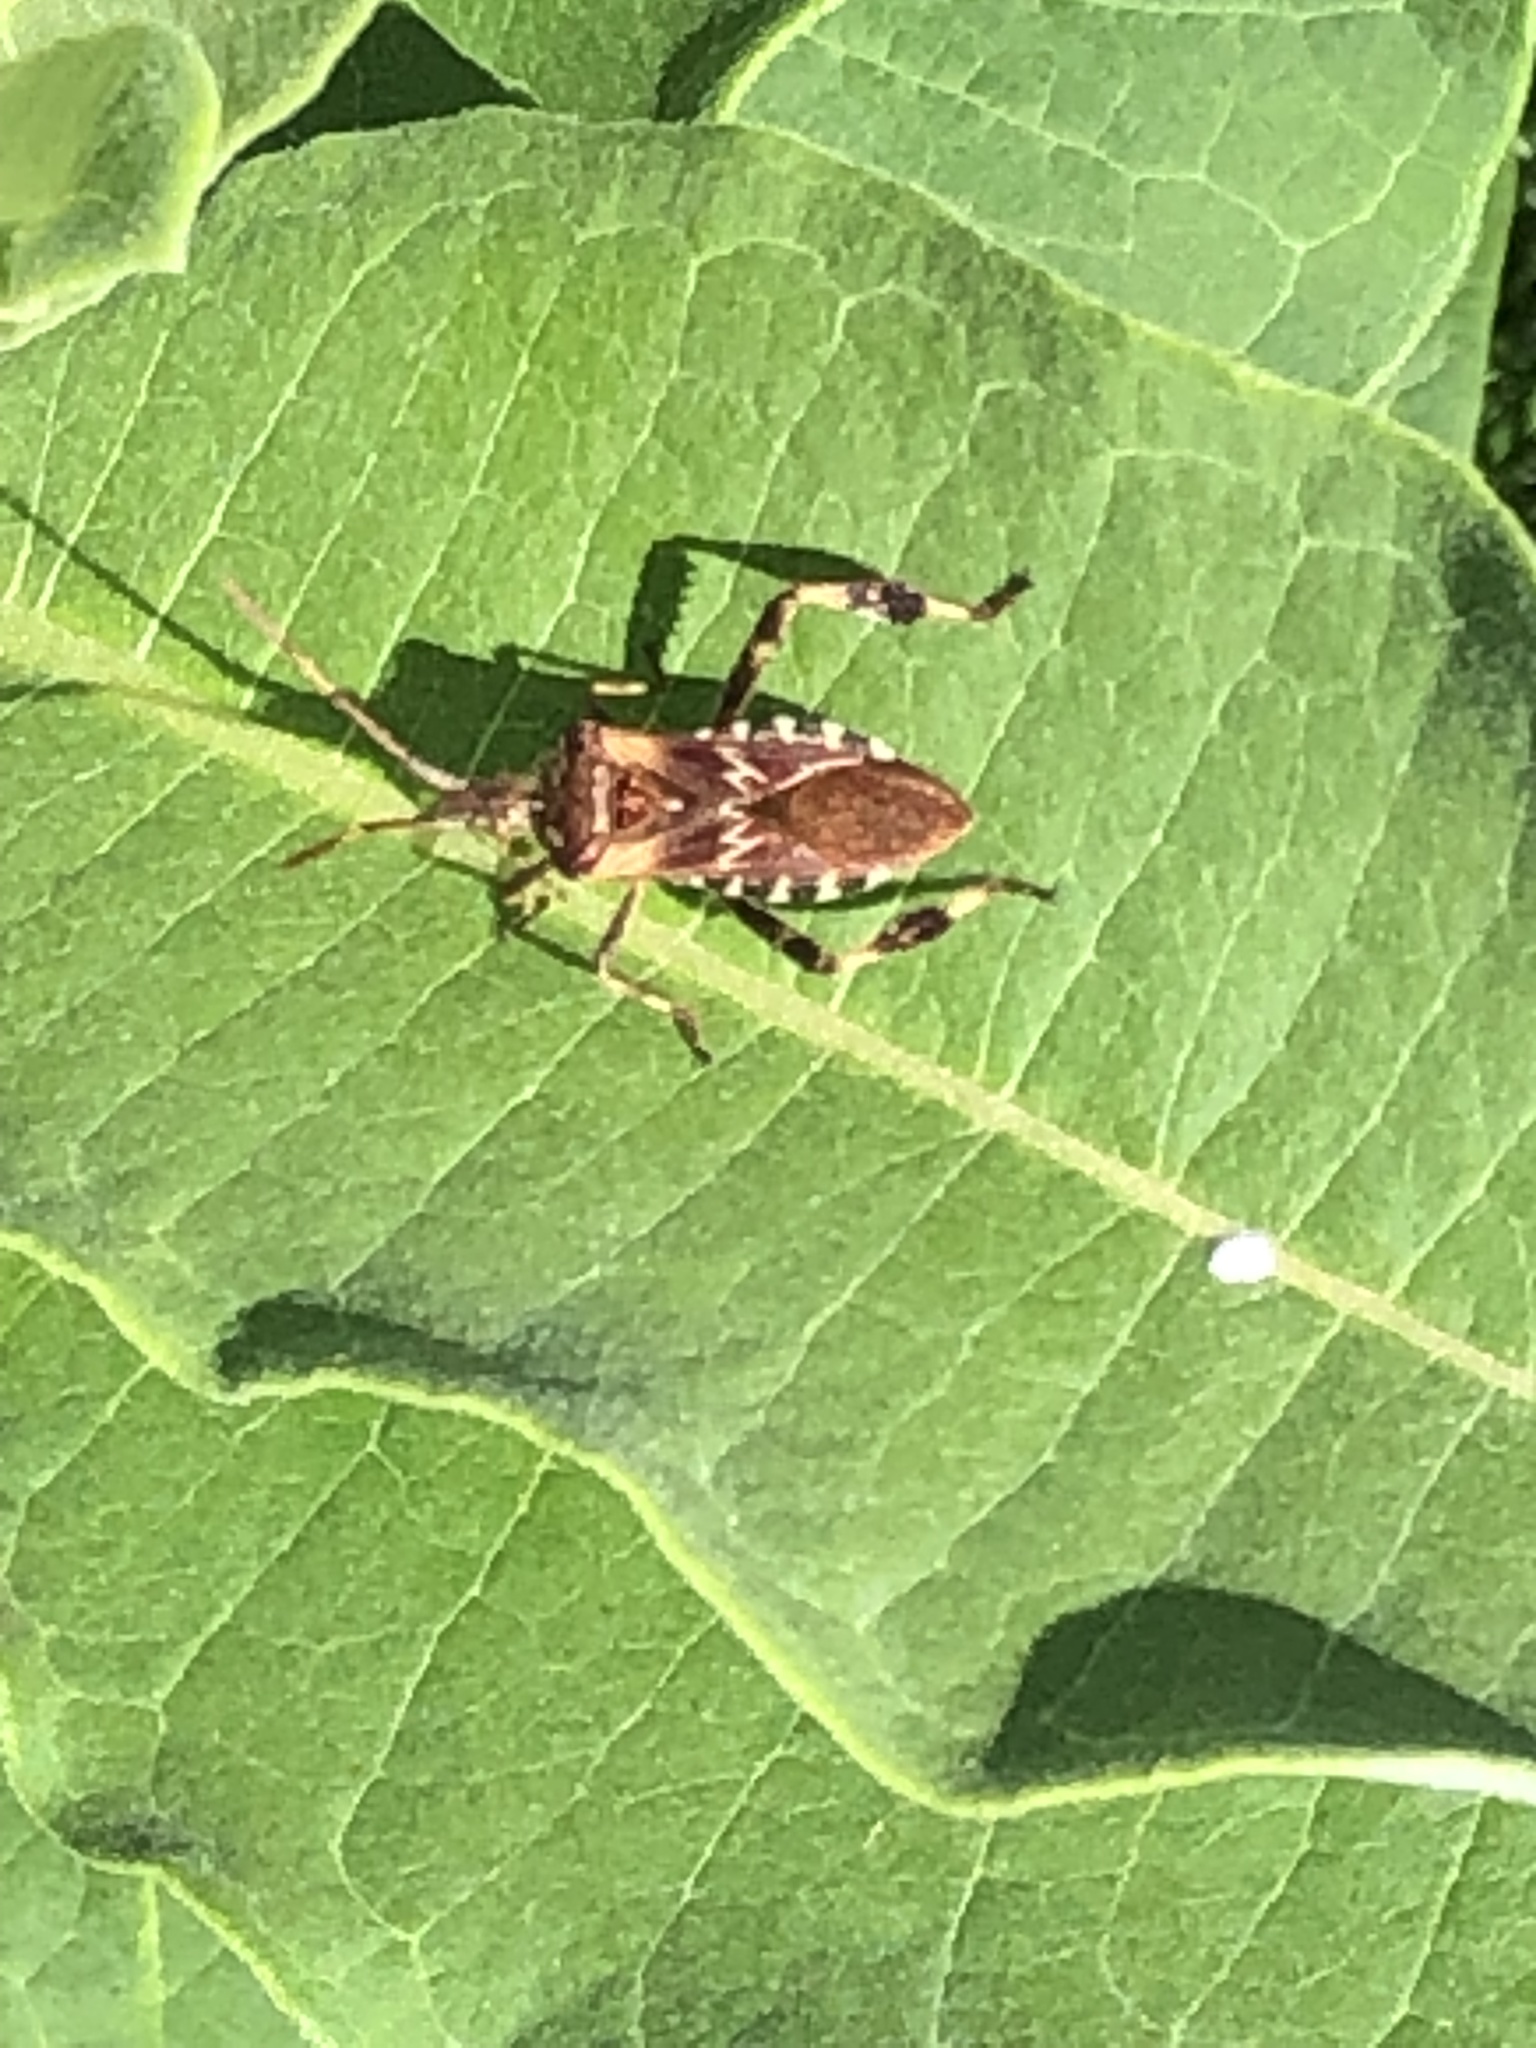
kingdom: Animalia
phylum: Arthropoda
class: Insecta
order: Hemiptera
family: Coreidae
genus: Leptoglossus
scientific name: Leptoglossus occidentalis
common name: Western conifer-seed bug
